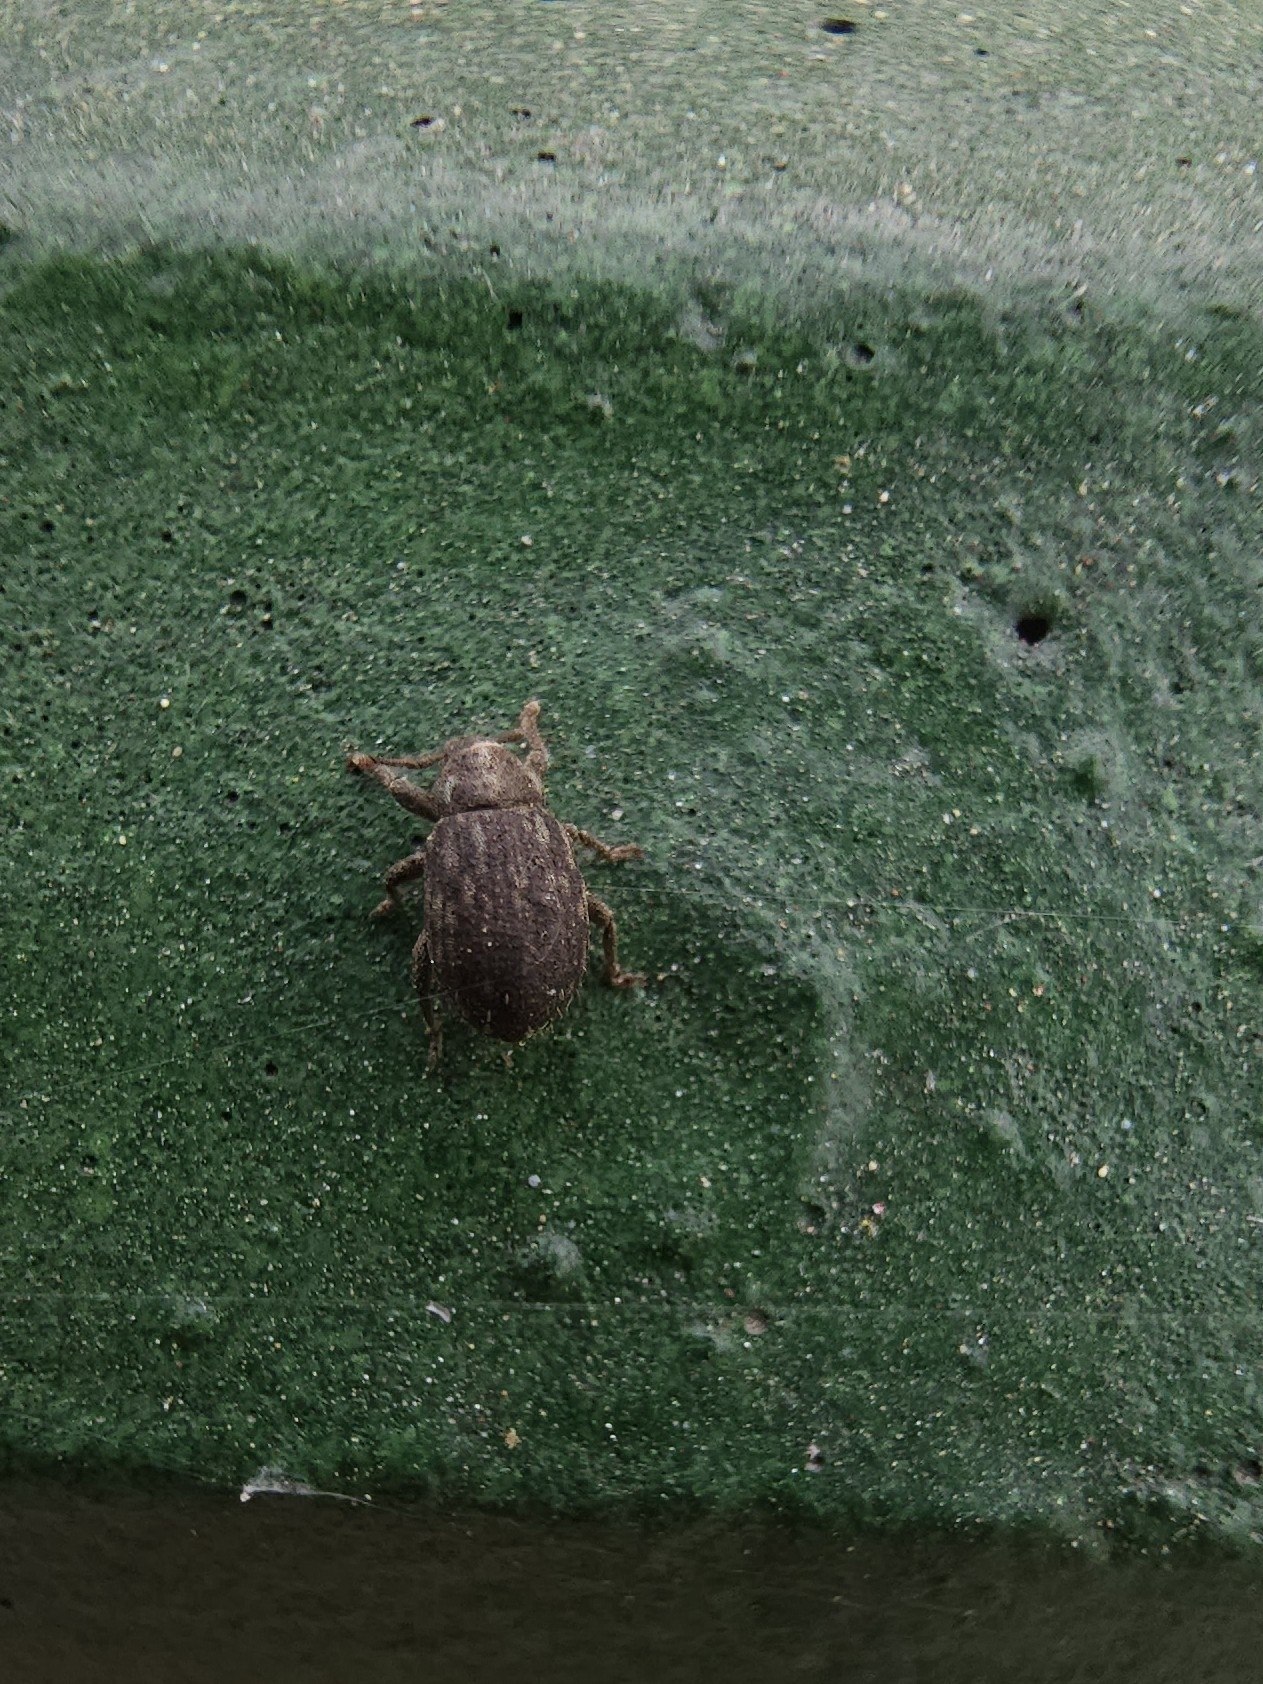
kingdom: Animalia
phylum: Arthropoda
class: Insecta
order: Coleoptera
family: Curculionidae
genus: Romualdius
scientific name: Romualdius scaber
